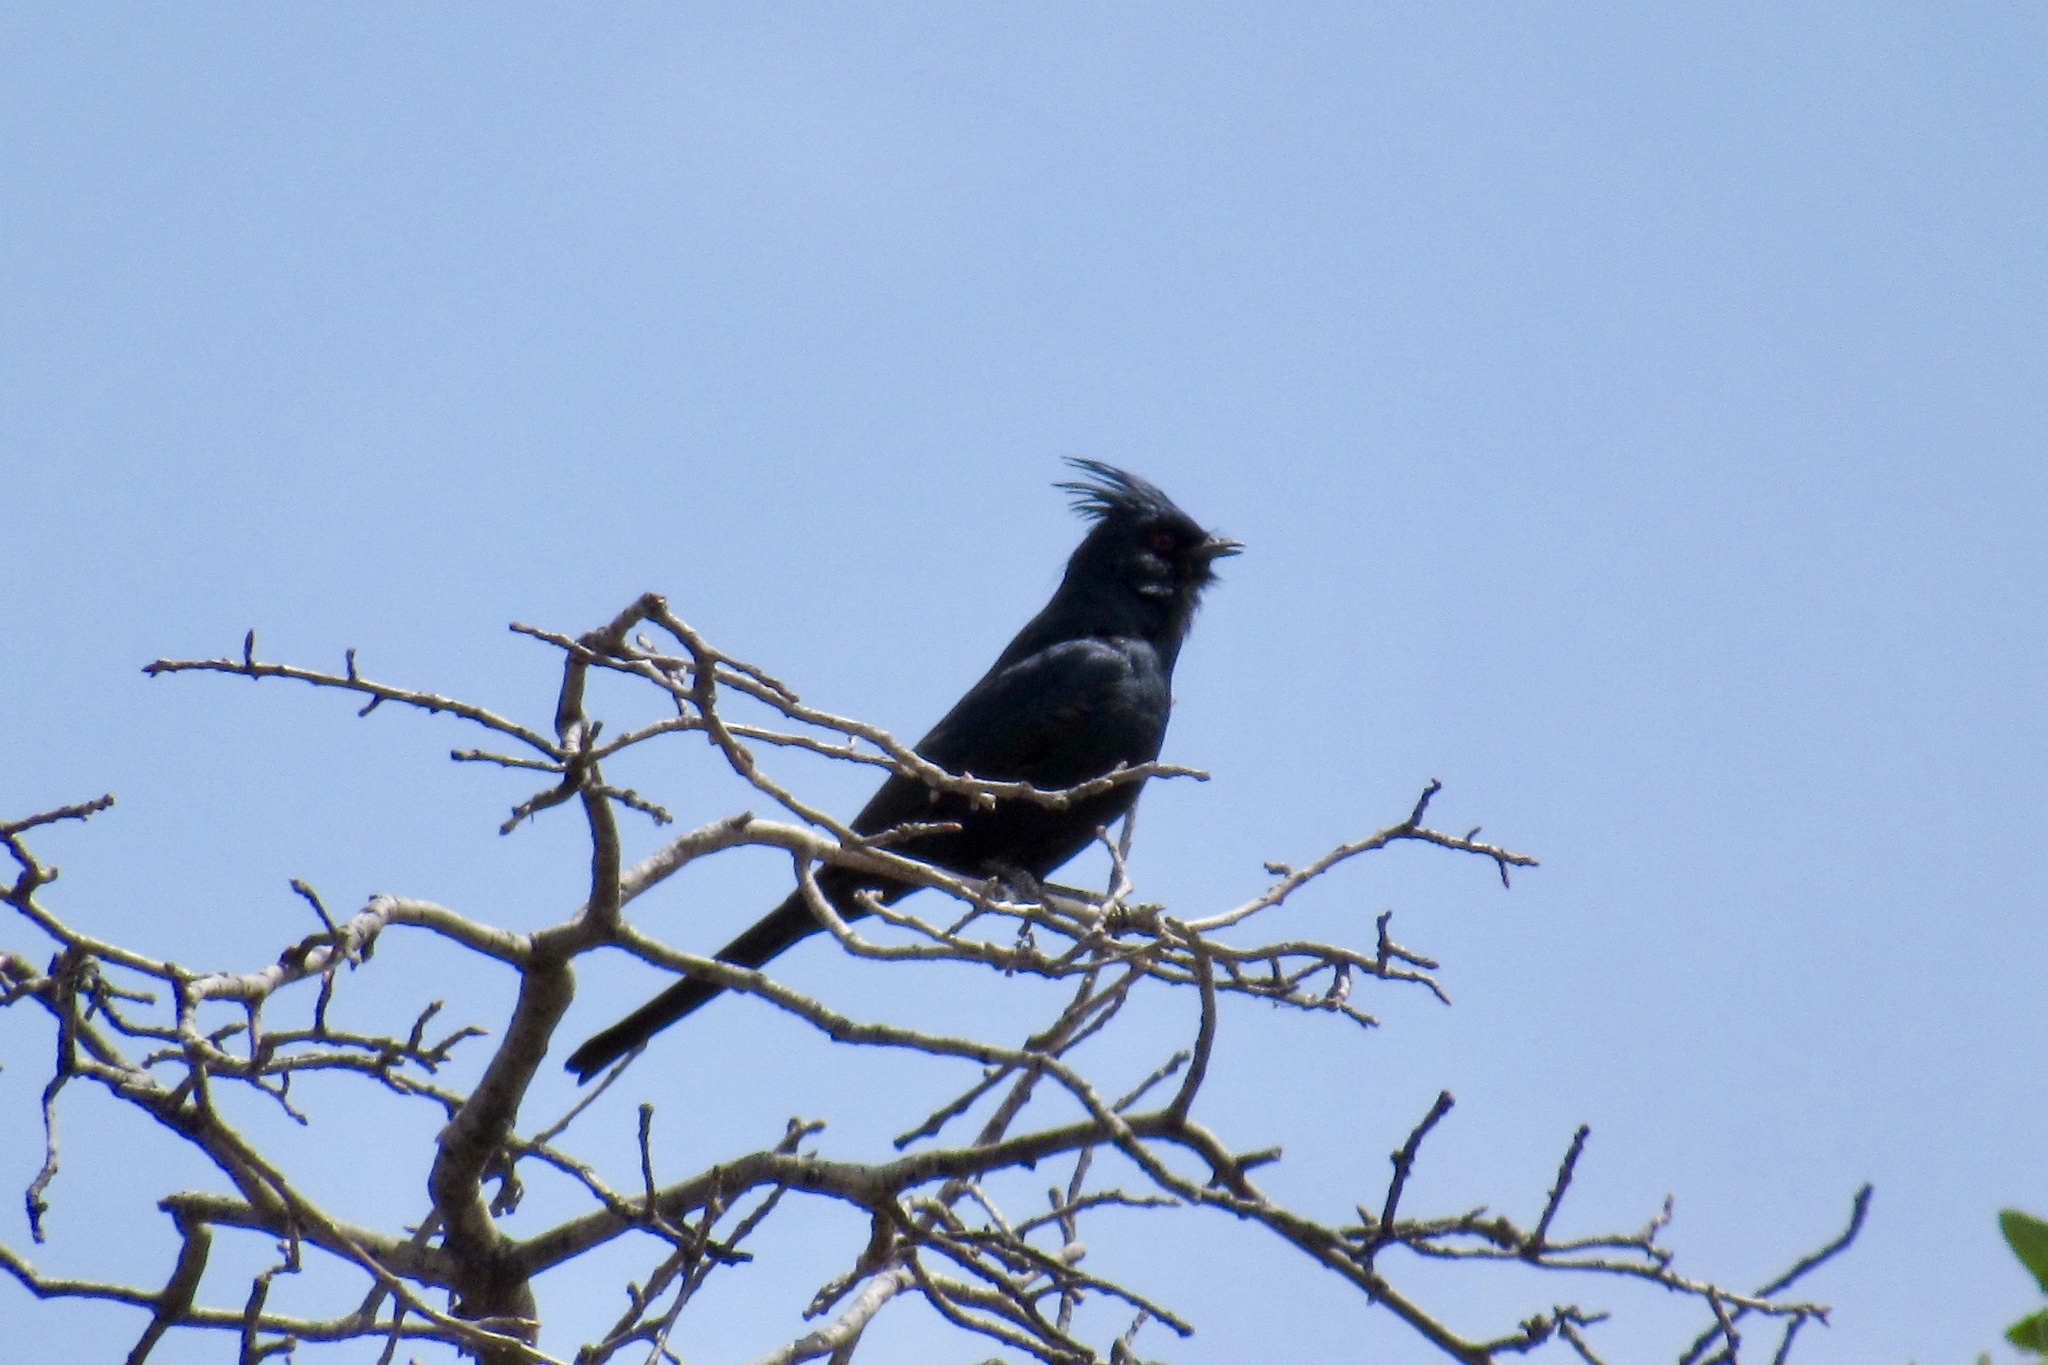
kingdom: Animalia
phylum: Chordata
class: Aves
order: Passeriformes
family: Ptilogonatidae
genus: Phainopepla
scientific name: Phainopepla nitens
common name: Phainopepla
